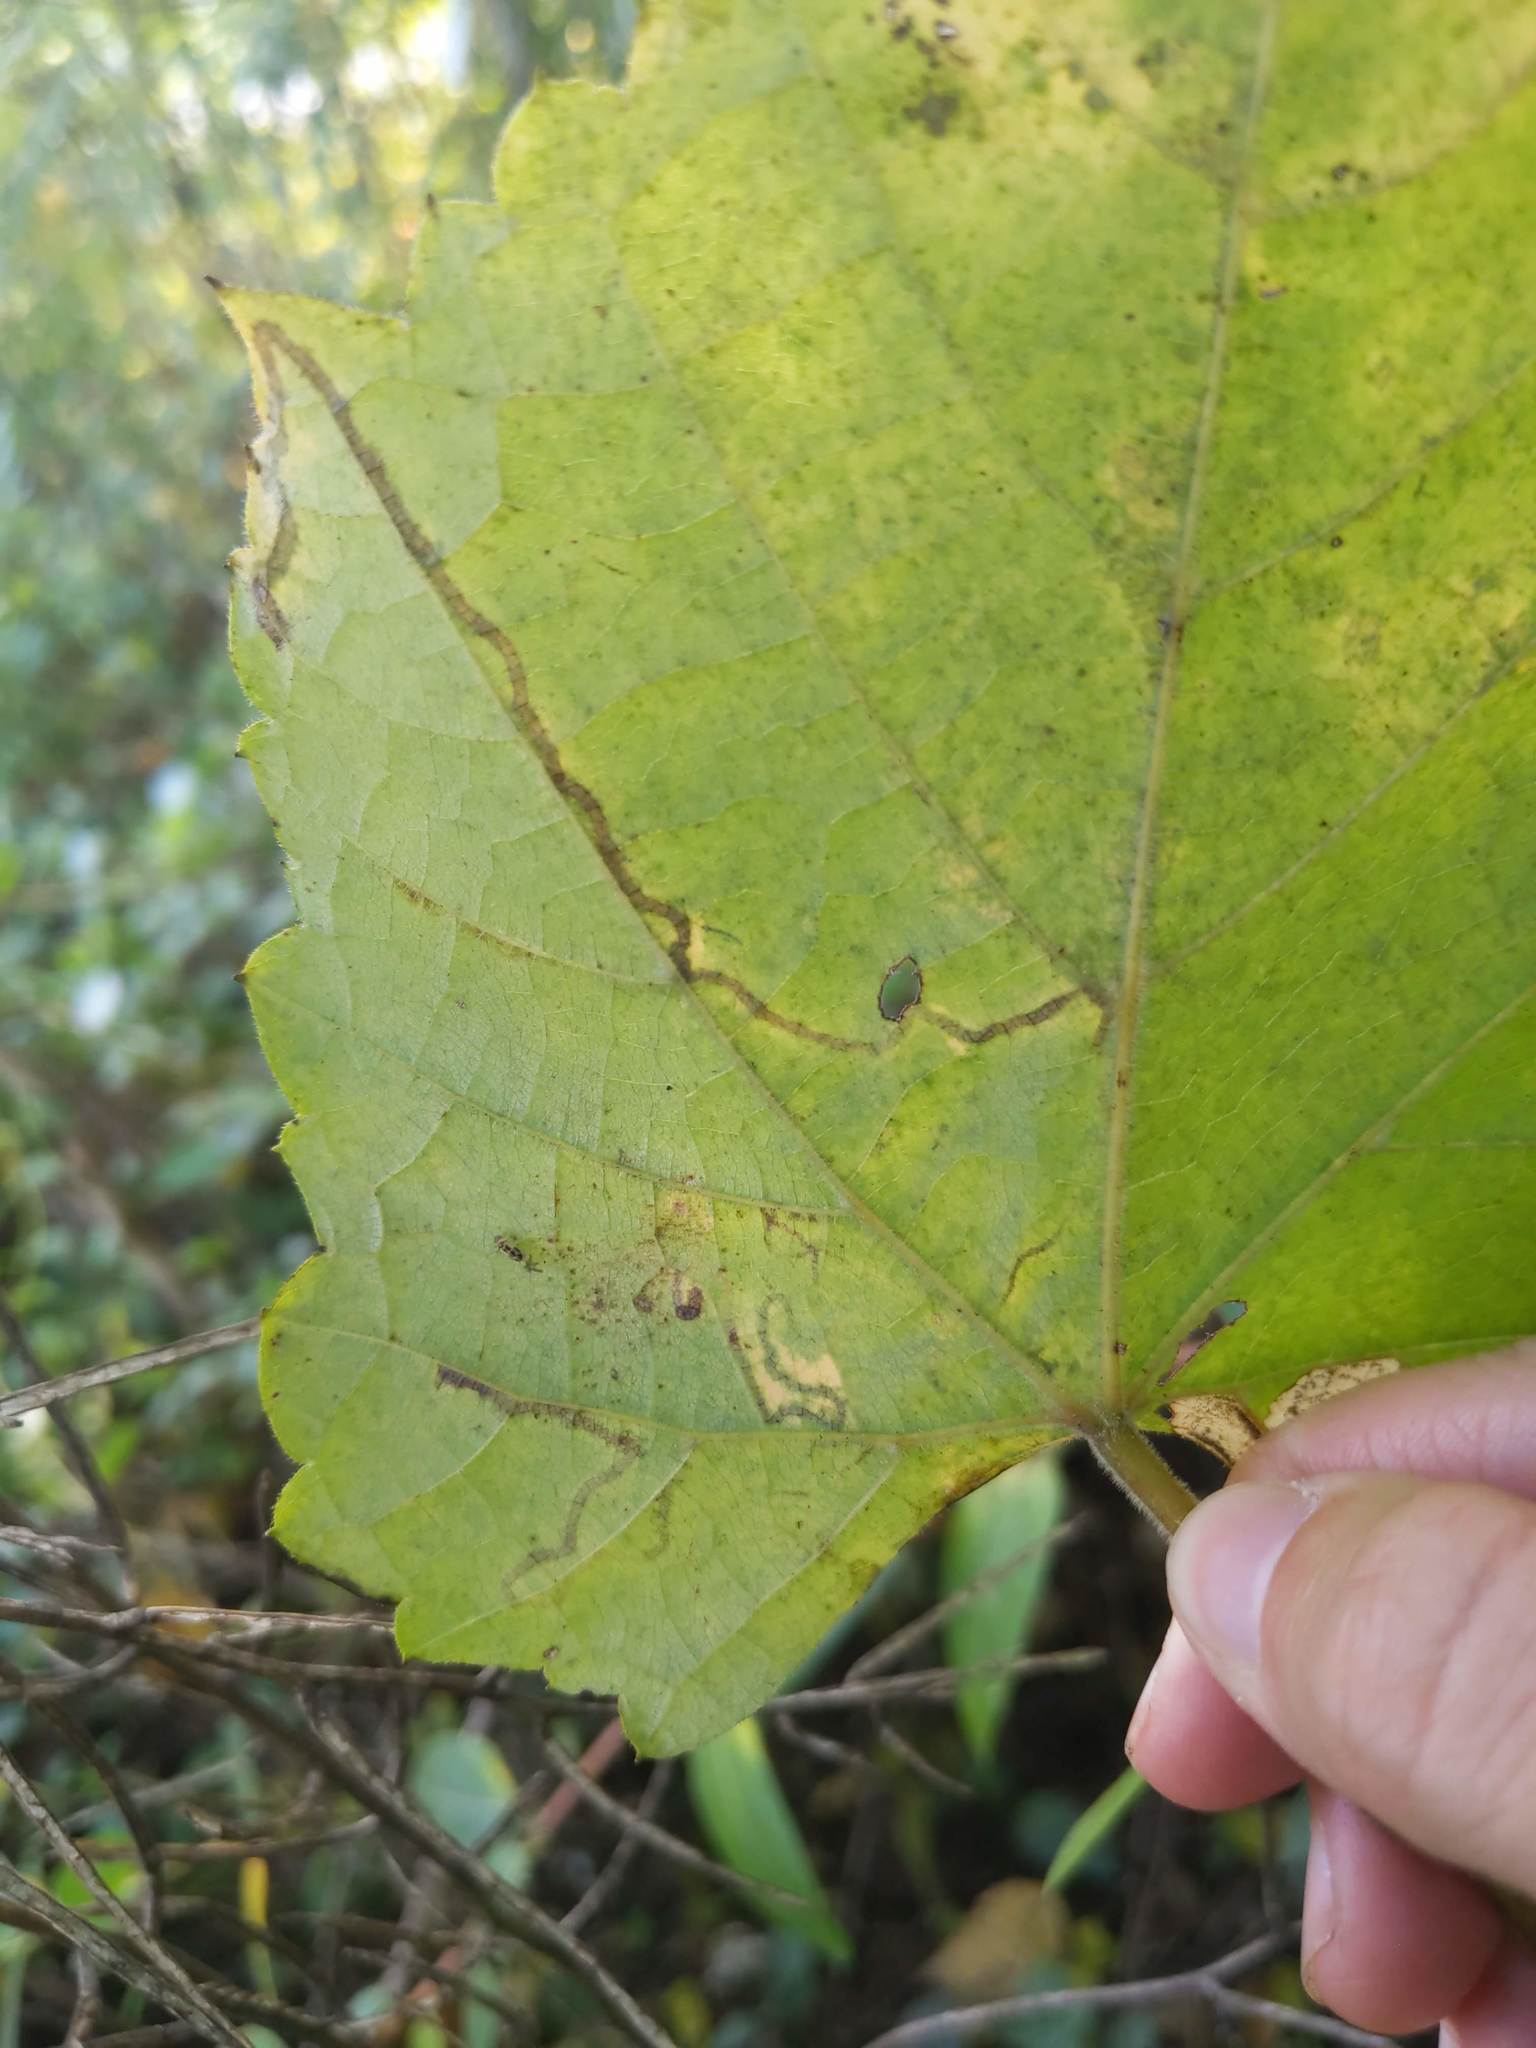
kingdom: Animalia
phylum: Arthropoda
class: Insecta
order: Lepidoptera
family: Gracillariidae
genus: Phyllocnistis
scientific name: Phyllocnistis vitifoliella
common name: Grape leaf-miner moth
